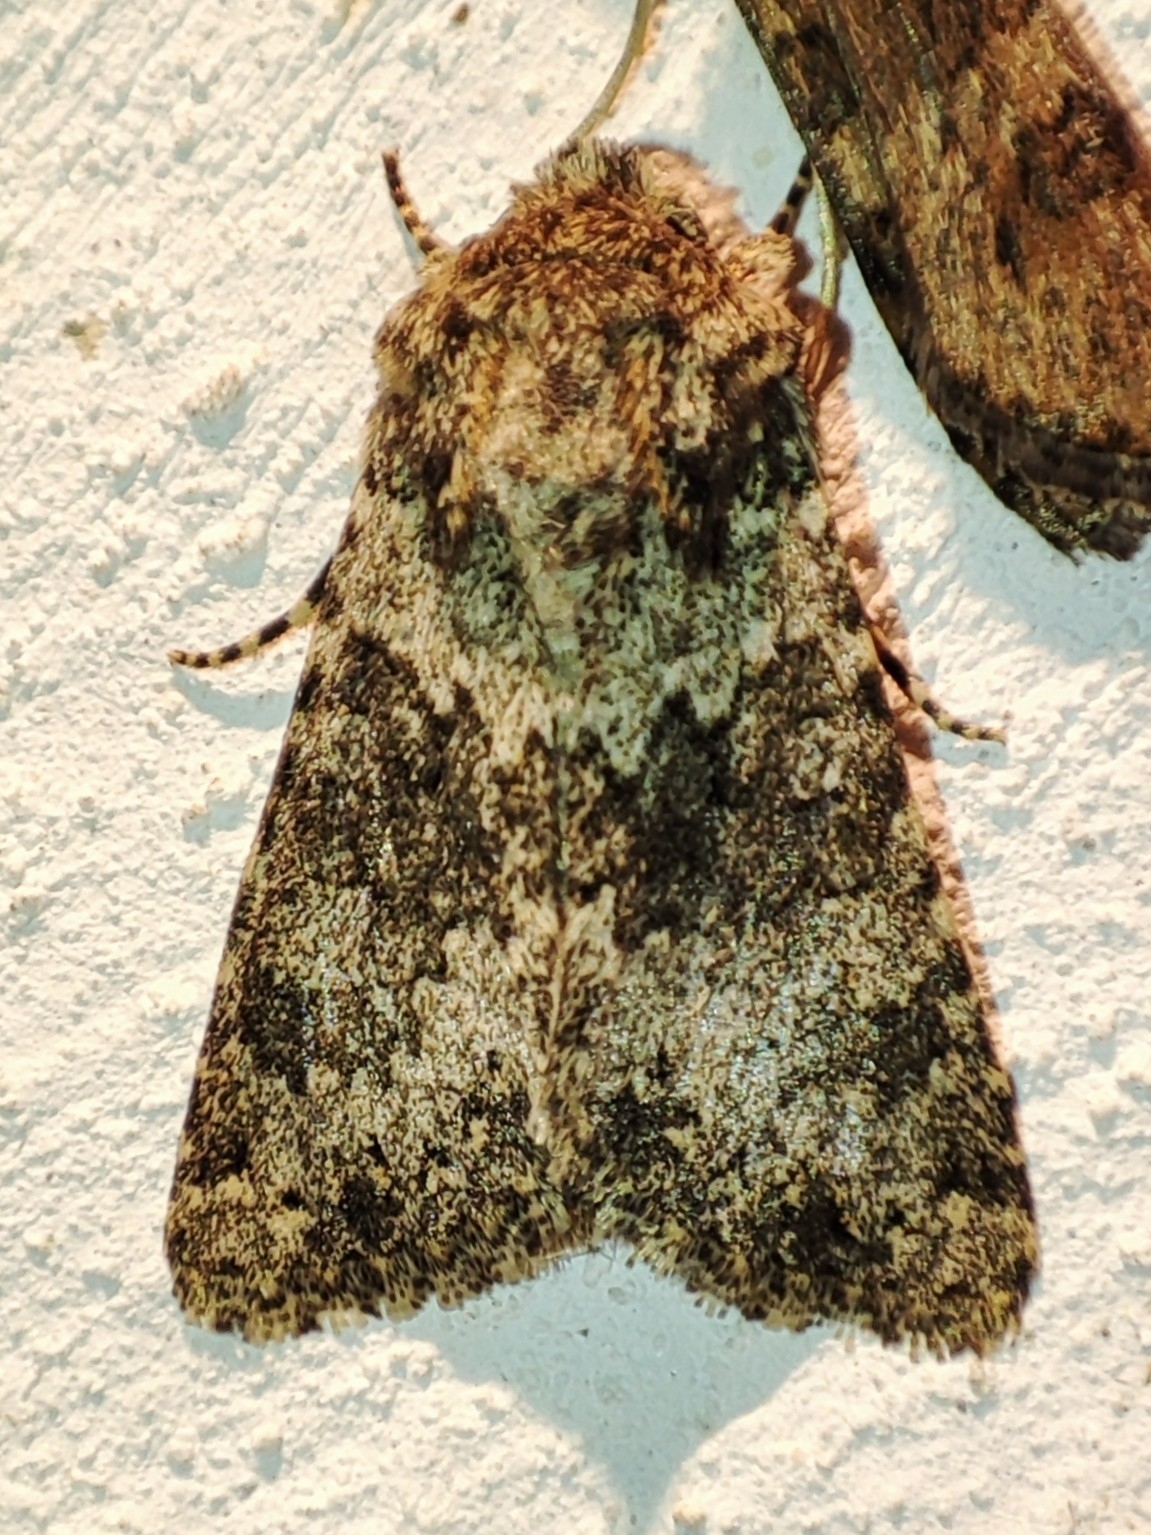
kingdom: Animalia
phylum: Arthropoda
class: Insecta
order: Lepidoptera
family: Noctuidae
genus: Hecatera
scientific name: Hecatera dysodea
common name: Small ranunculus
